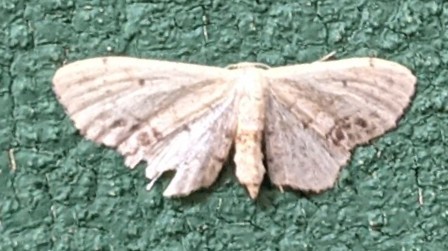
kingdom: Animalia
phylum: Arthropoda
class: Insecta
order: Lepidoptera
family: Geometridae
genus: Idaea
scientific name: Idaea dimidiata
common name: Single-dotted wave
